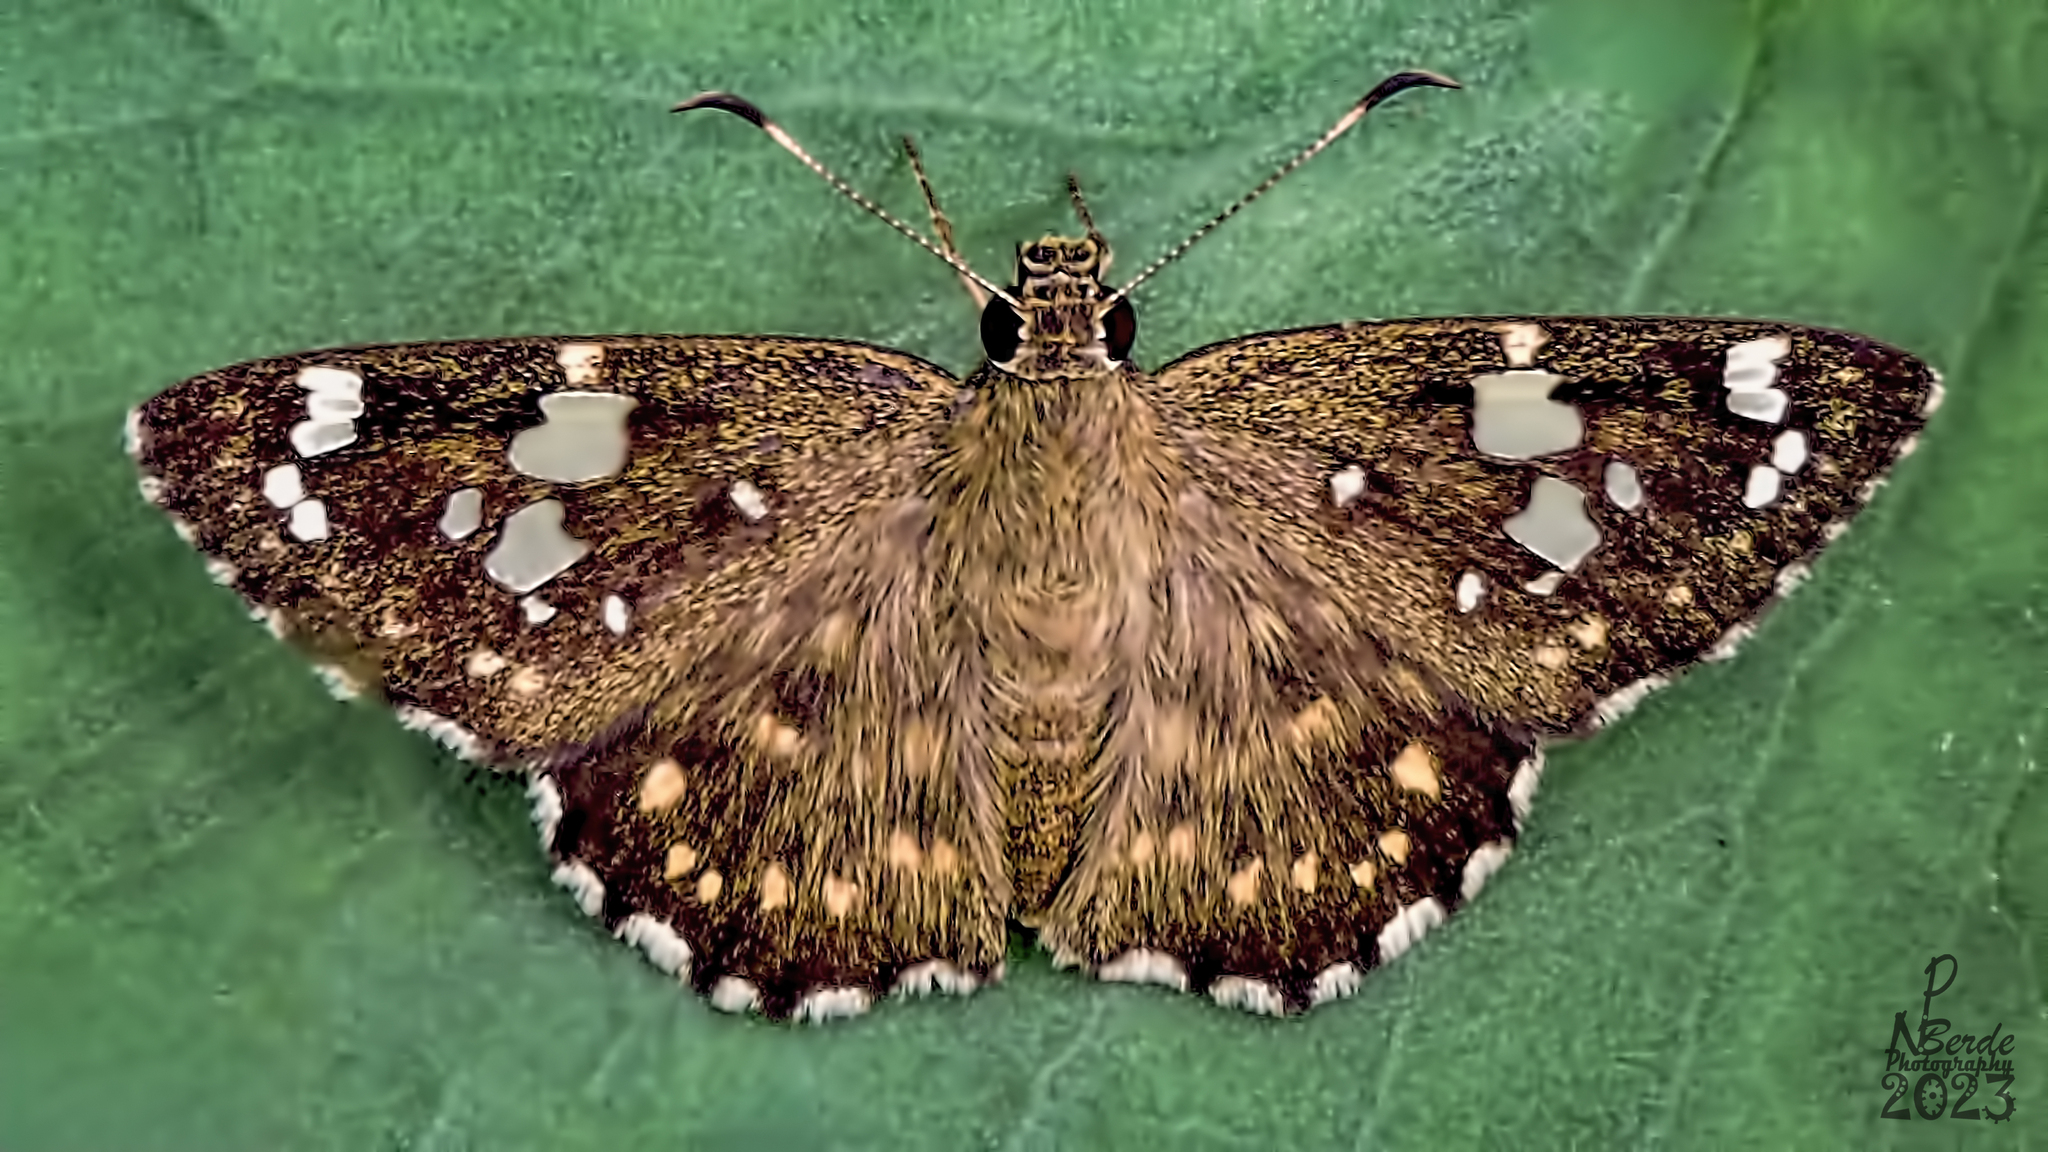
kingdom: Animalia
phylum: Arthropoda
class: Insecta
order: Lepidoptera
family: Hesperiidae
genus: Celaenorrhinus
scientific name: Celaenorrhinus ambareesa
